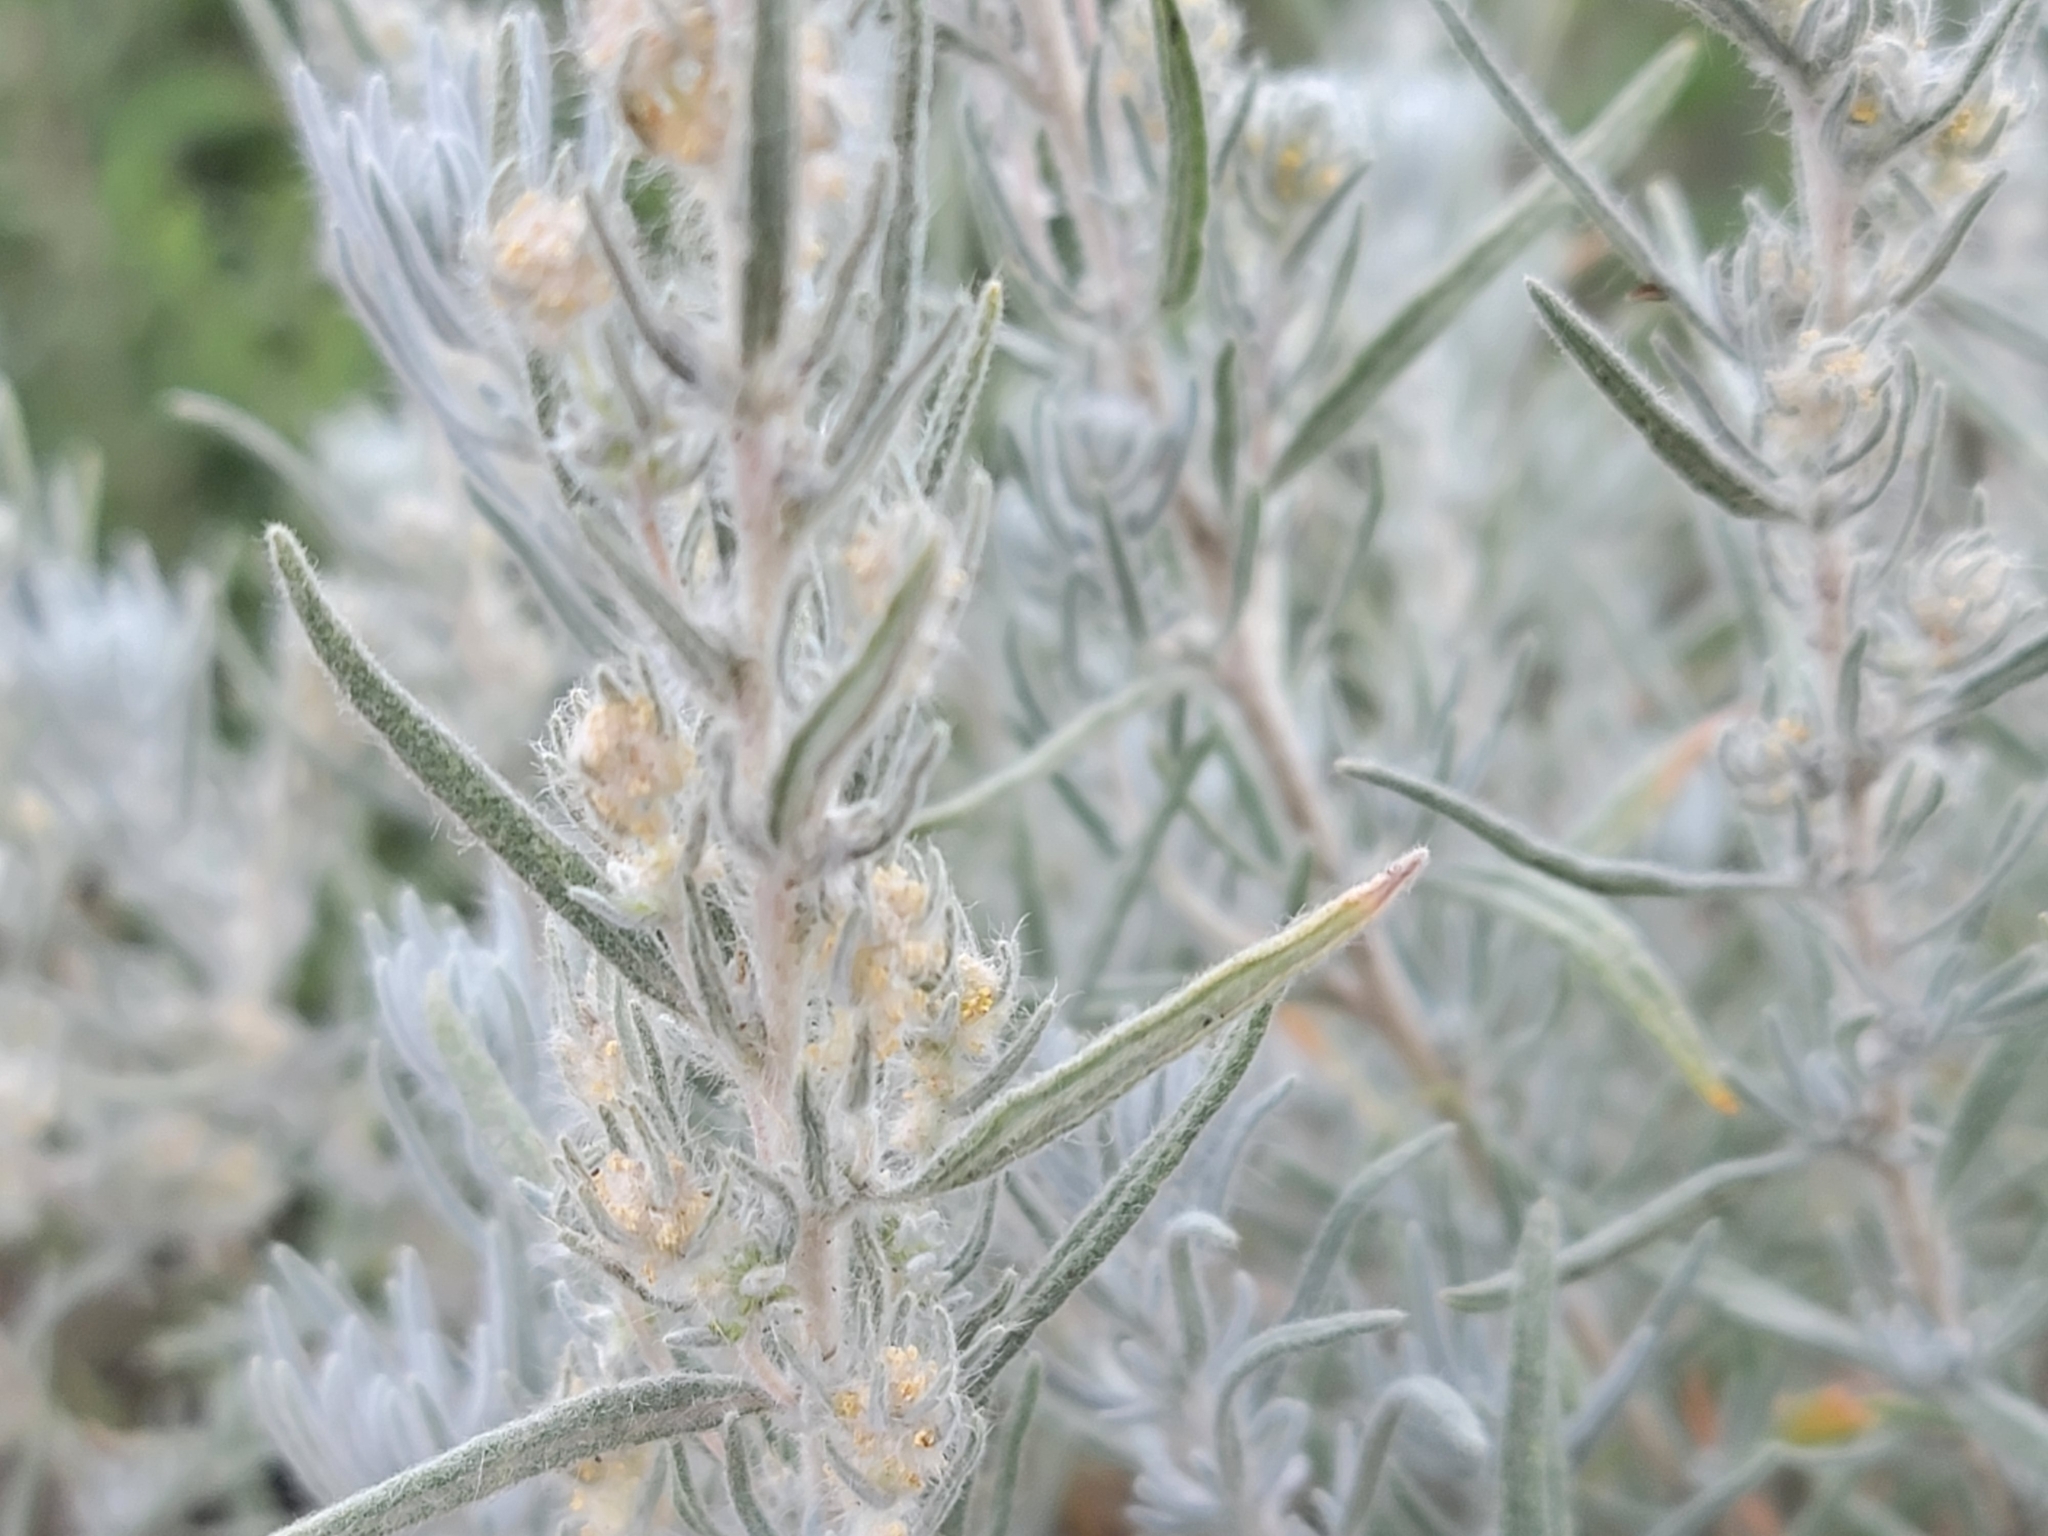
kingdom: Plantae
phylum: Tracheophyta
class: Magnoliopsida
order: Caryophyllales
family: Amaranthaceae
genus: Krascheninnikovia
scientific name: Krascheninnikovia lanata
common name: Winterfat
